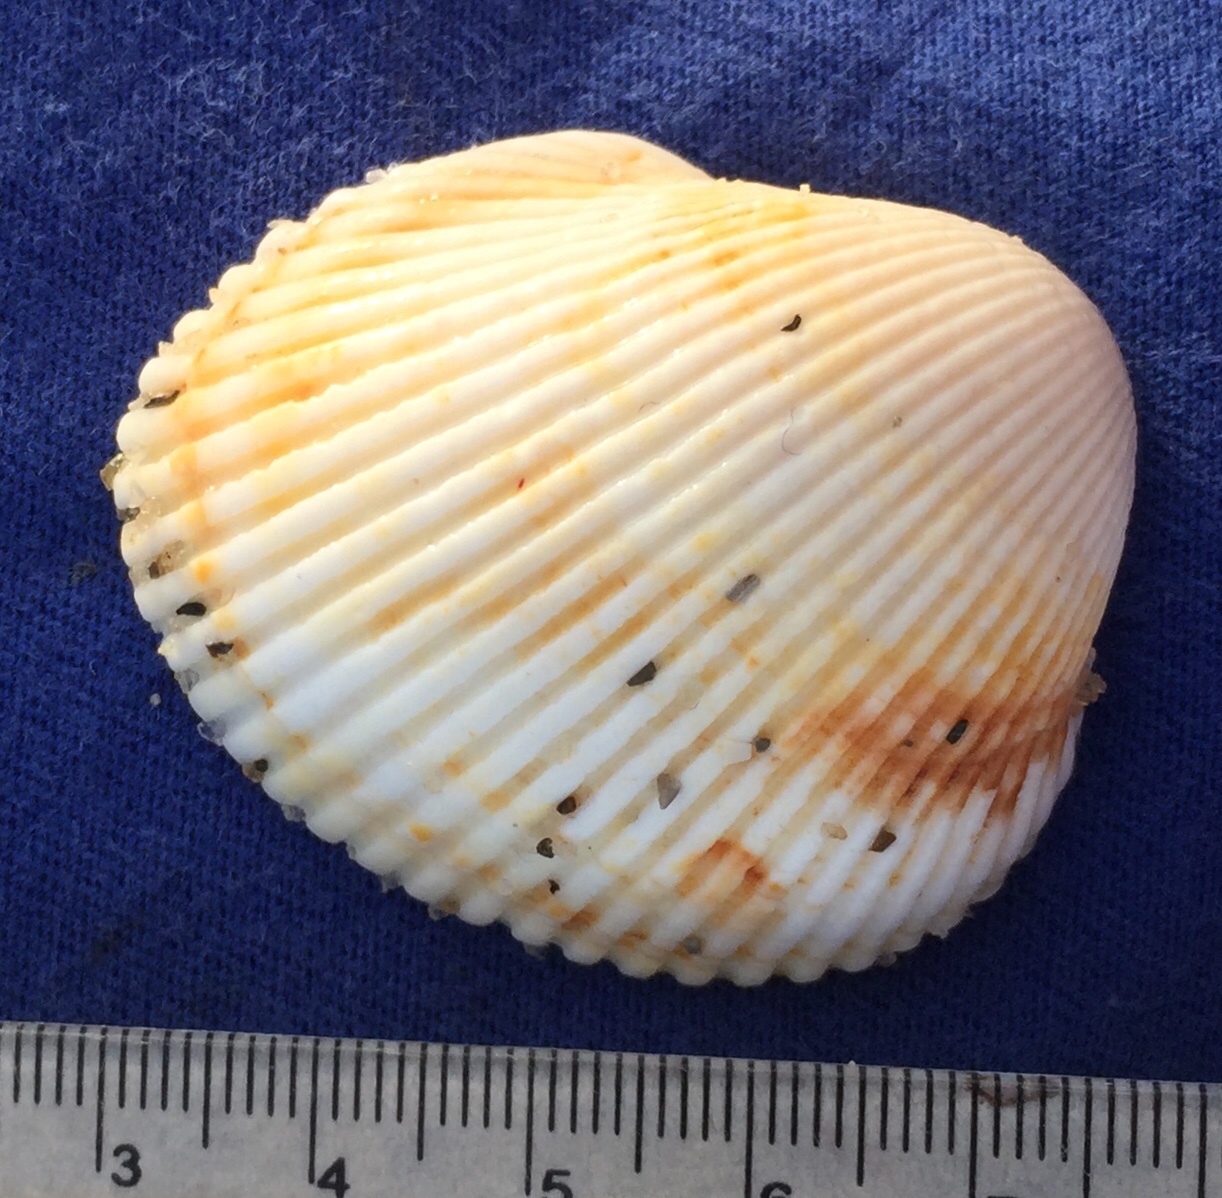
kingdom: Animalia
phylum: Mollusca
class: Bivalvia
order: Arcida
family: Arcidae
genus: Lunarca
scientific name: Lunarca ovalis
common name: Blood ark
